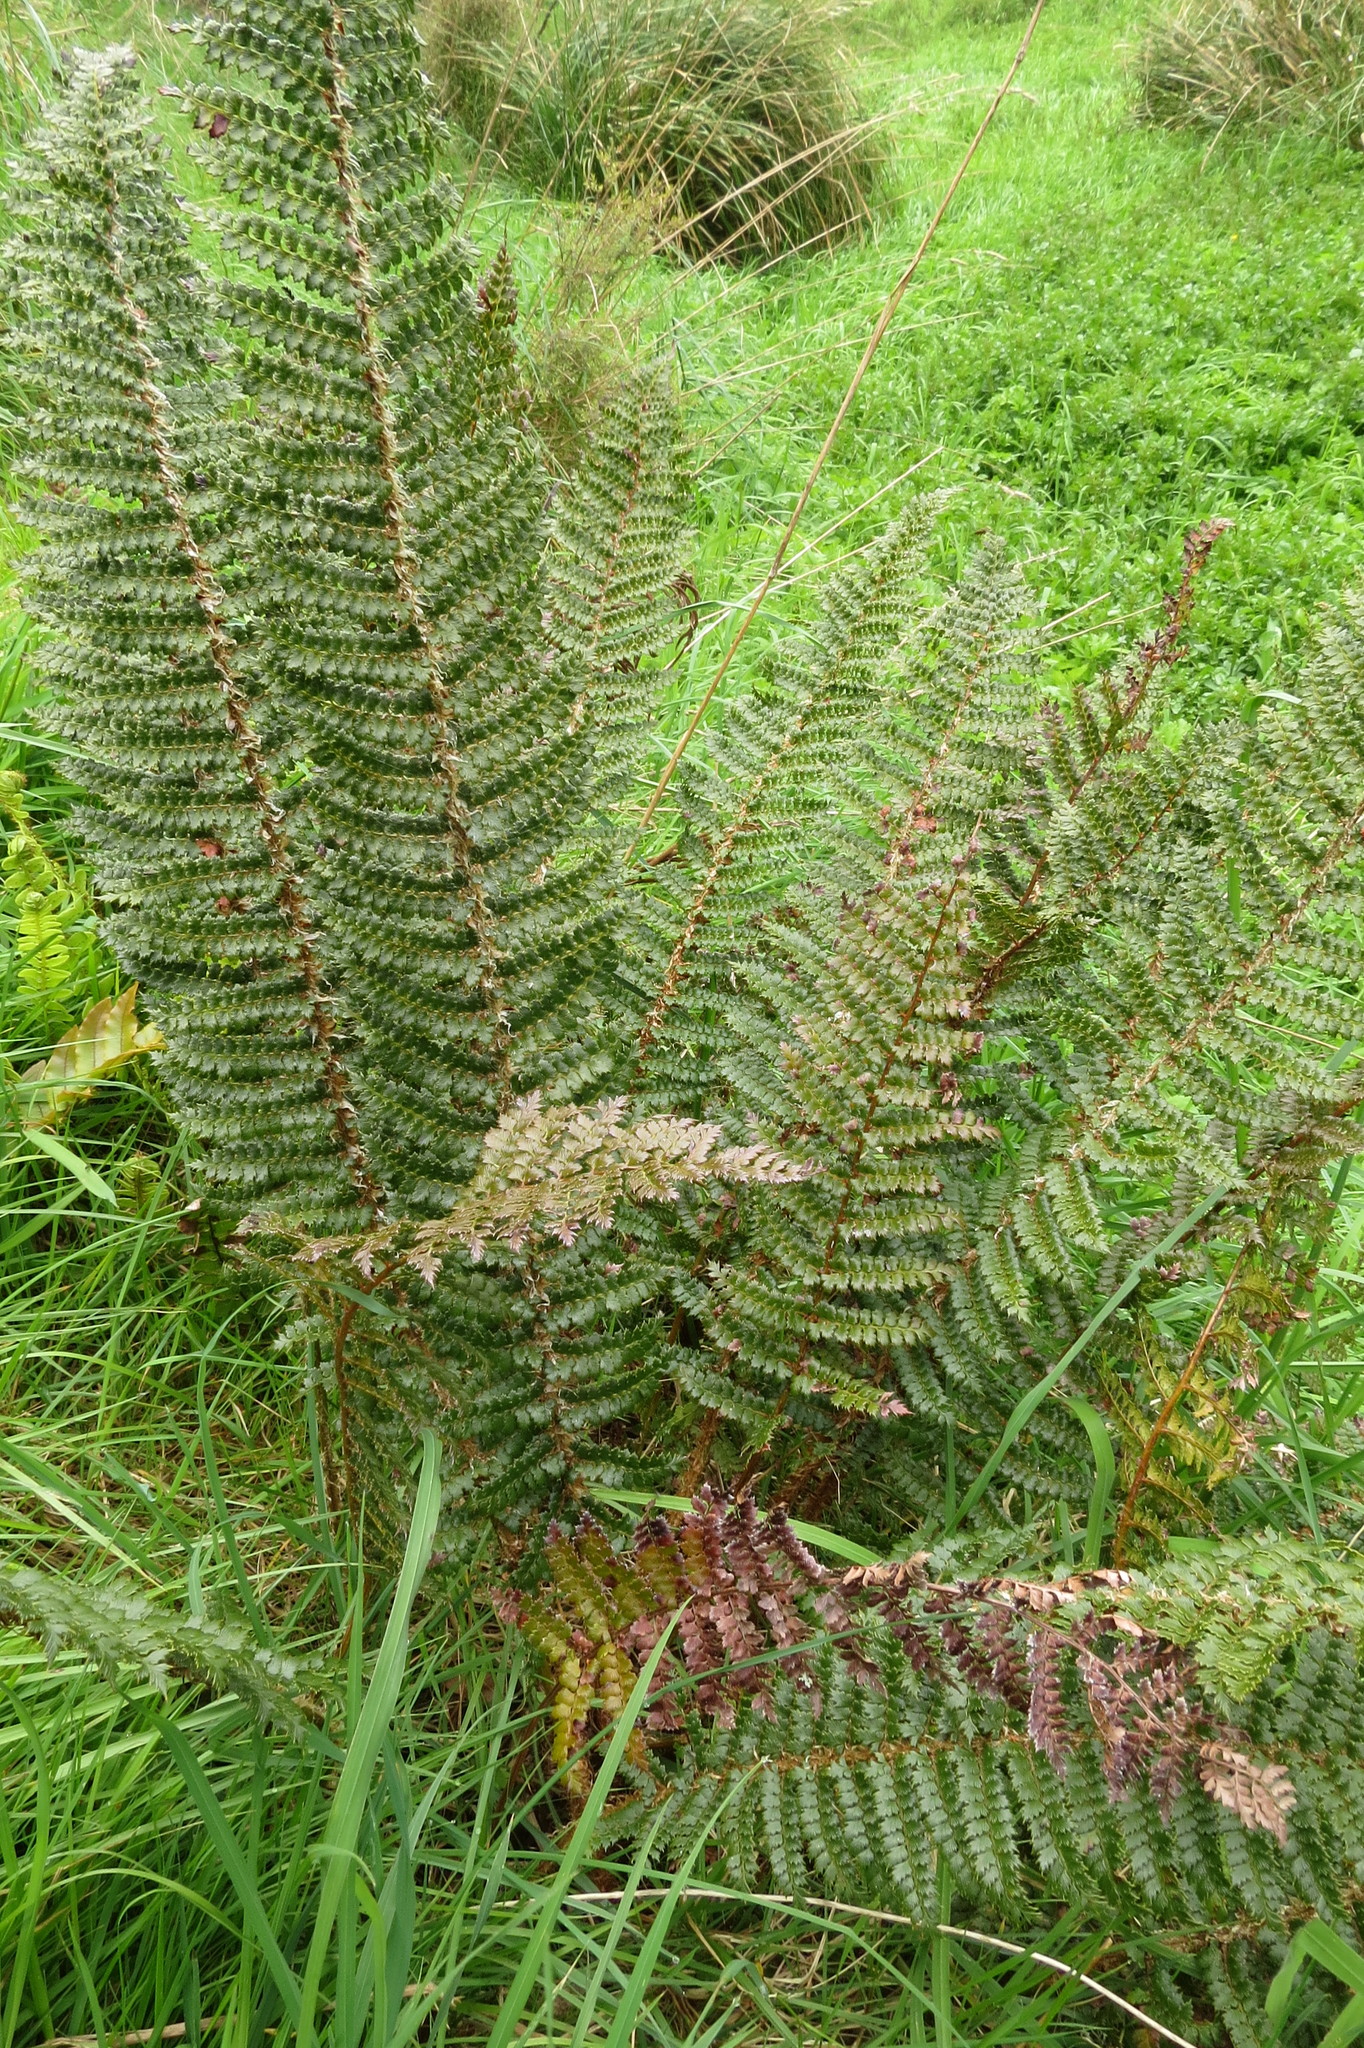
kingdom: Plantae
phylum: Tracheophyta
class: Polypodiopsida
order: Polypodiales
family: Dryopteridaceae
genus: Polystichum
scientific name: Polystichum vestitum
